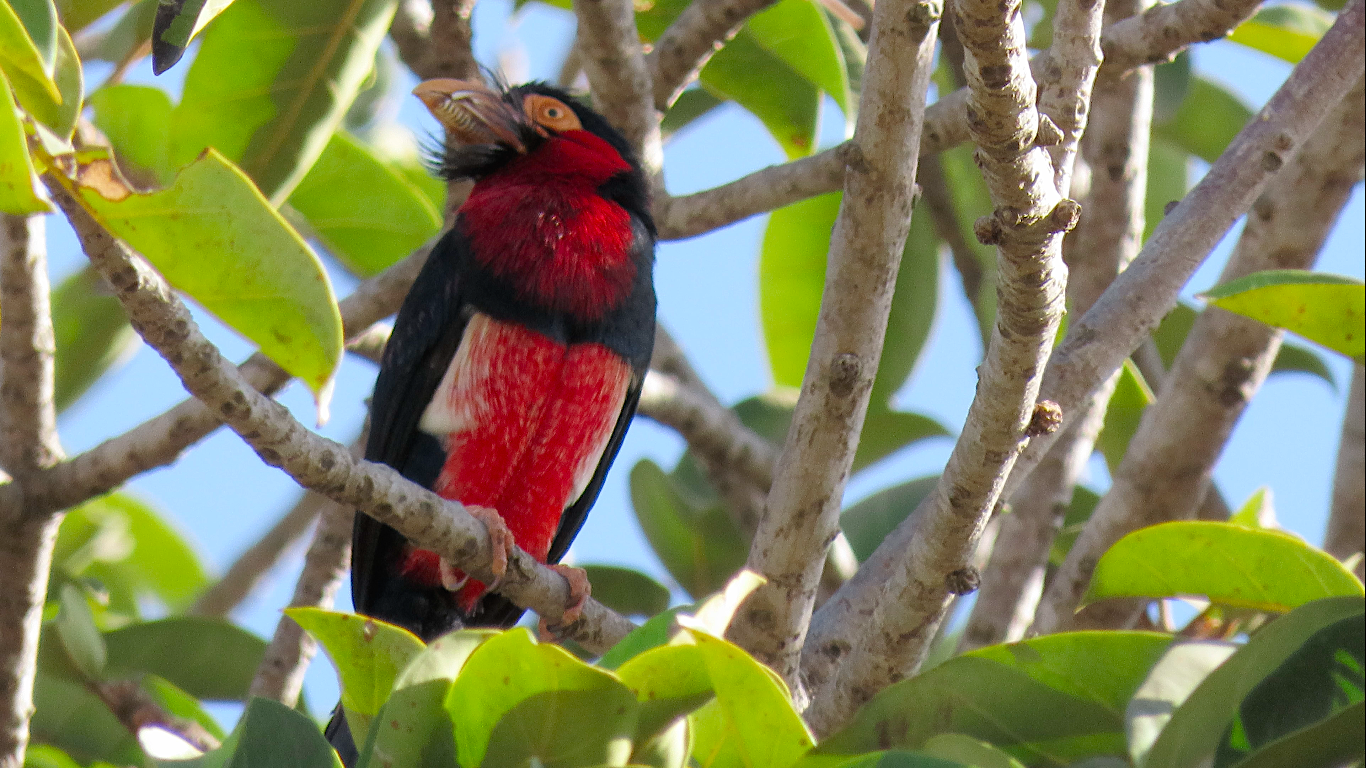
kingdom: Animalia
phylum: Chordata
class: Aves
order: Piciformes
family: Lybiidae
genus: Lybius
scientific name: Lybius dubius
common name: Bearded barbet
